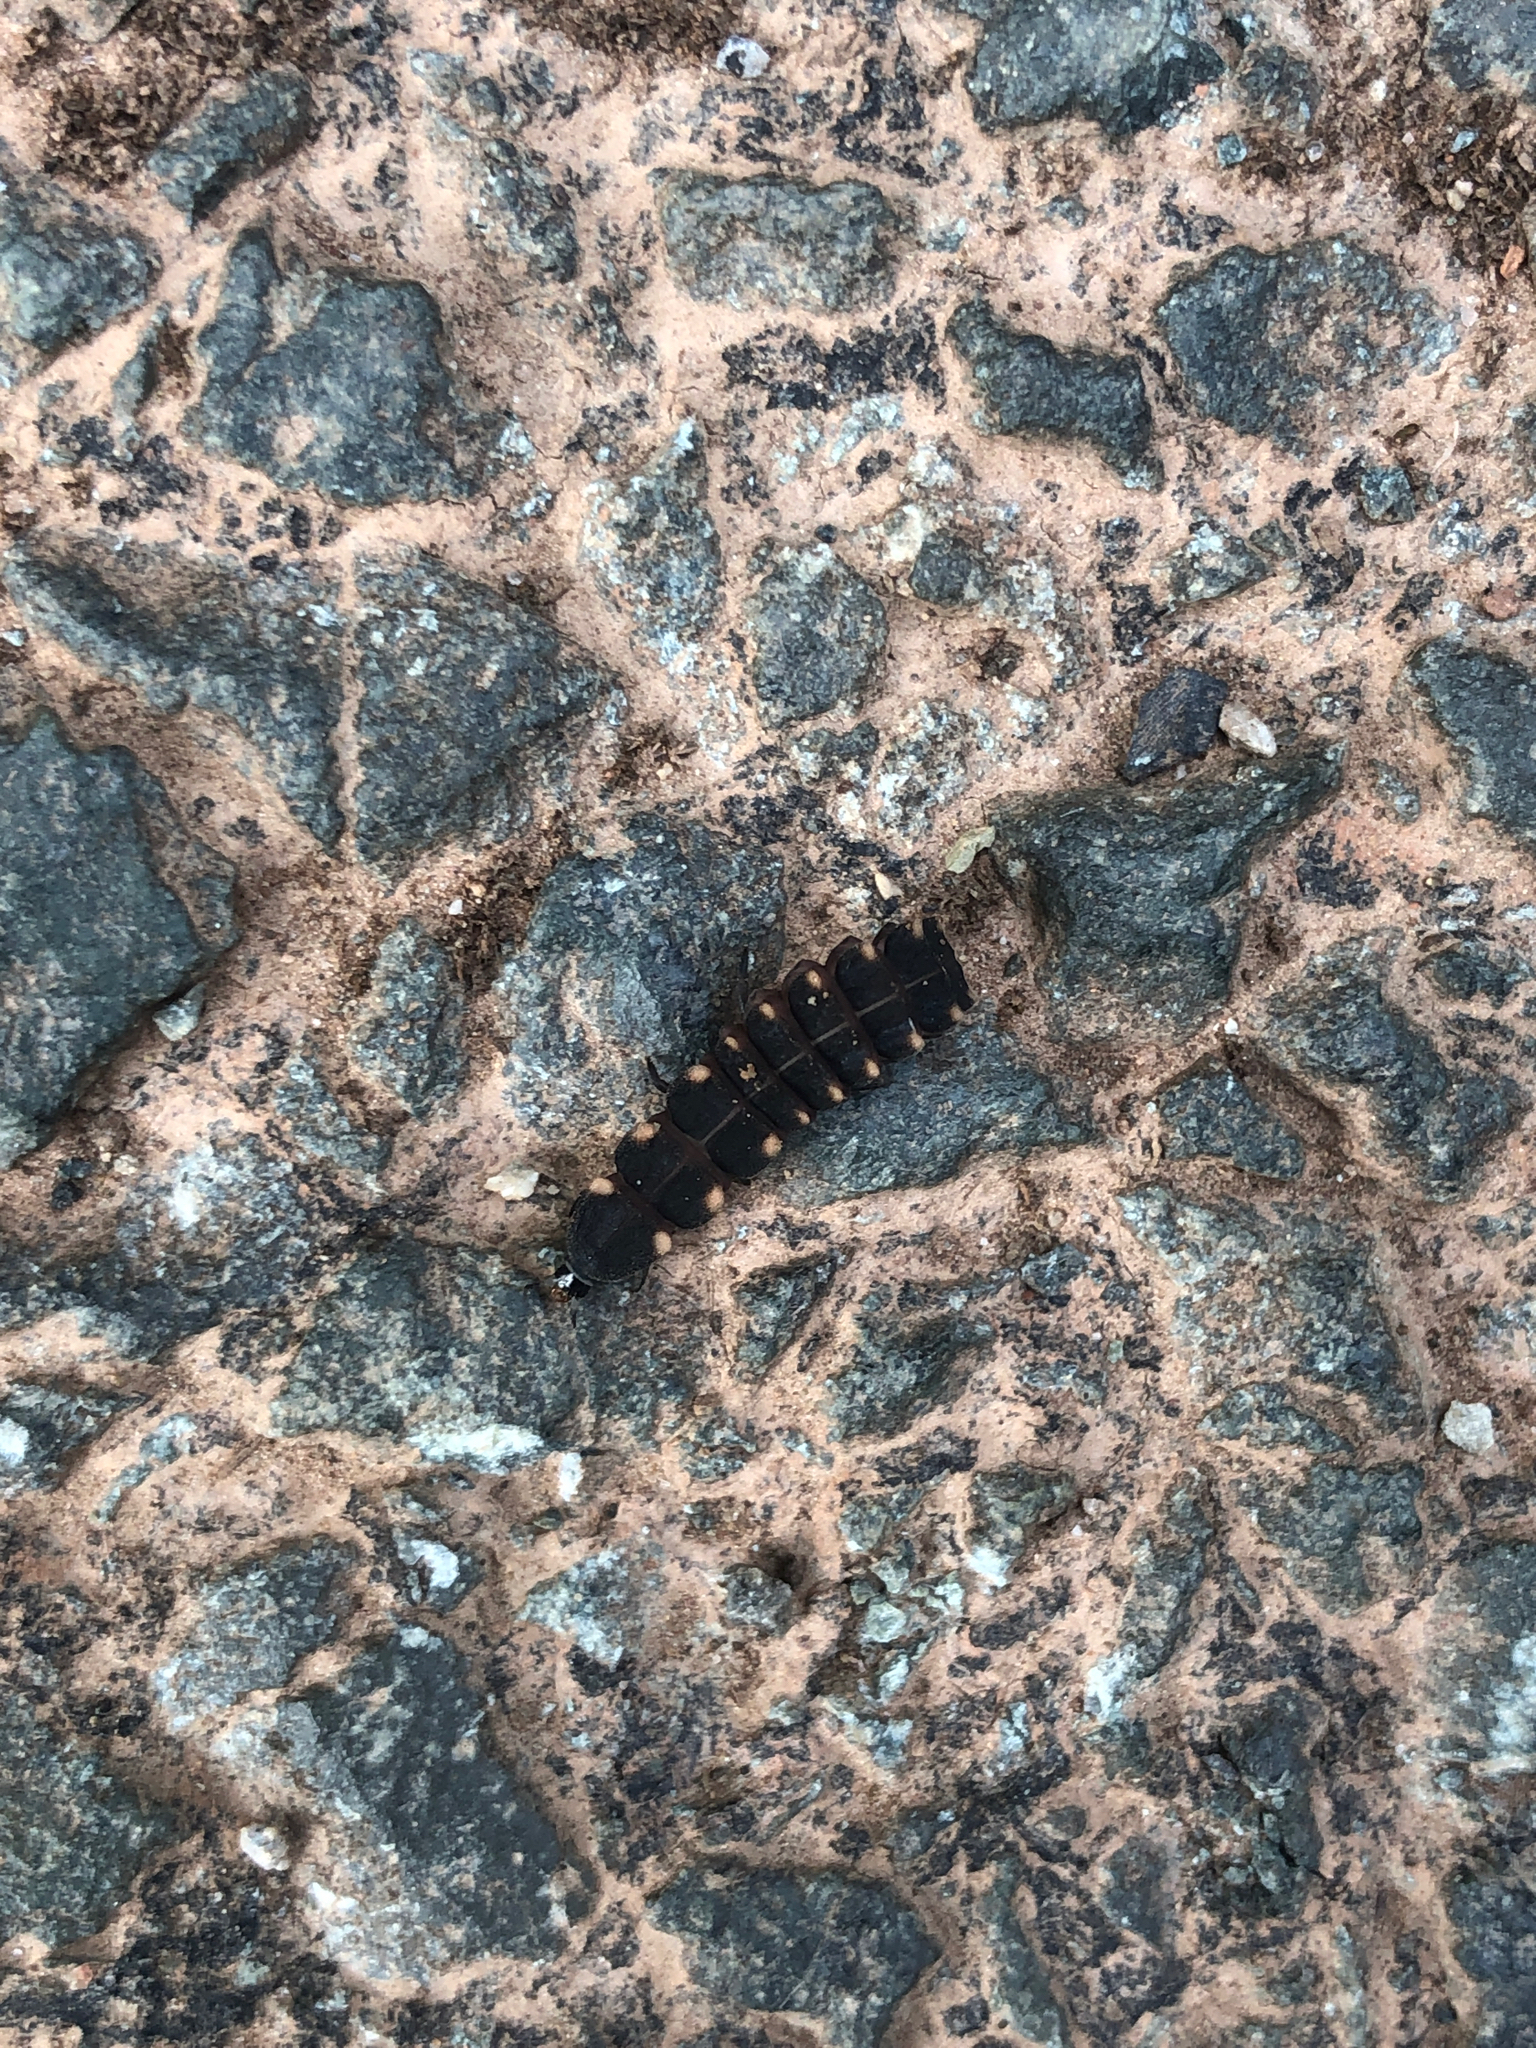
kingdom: Animalia
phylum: Arthropoda
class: Insecta
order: Coleoptera
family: Lampyridae
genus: Lampyris
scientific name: Lampyris noctiluca
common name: Glow-worm
